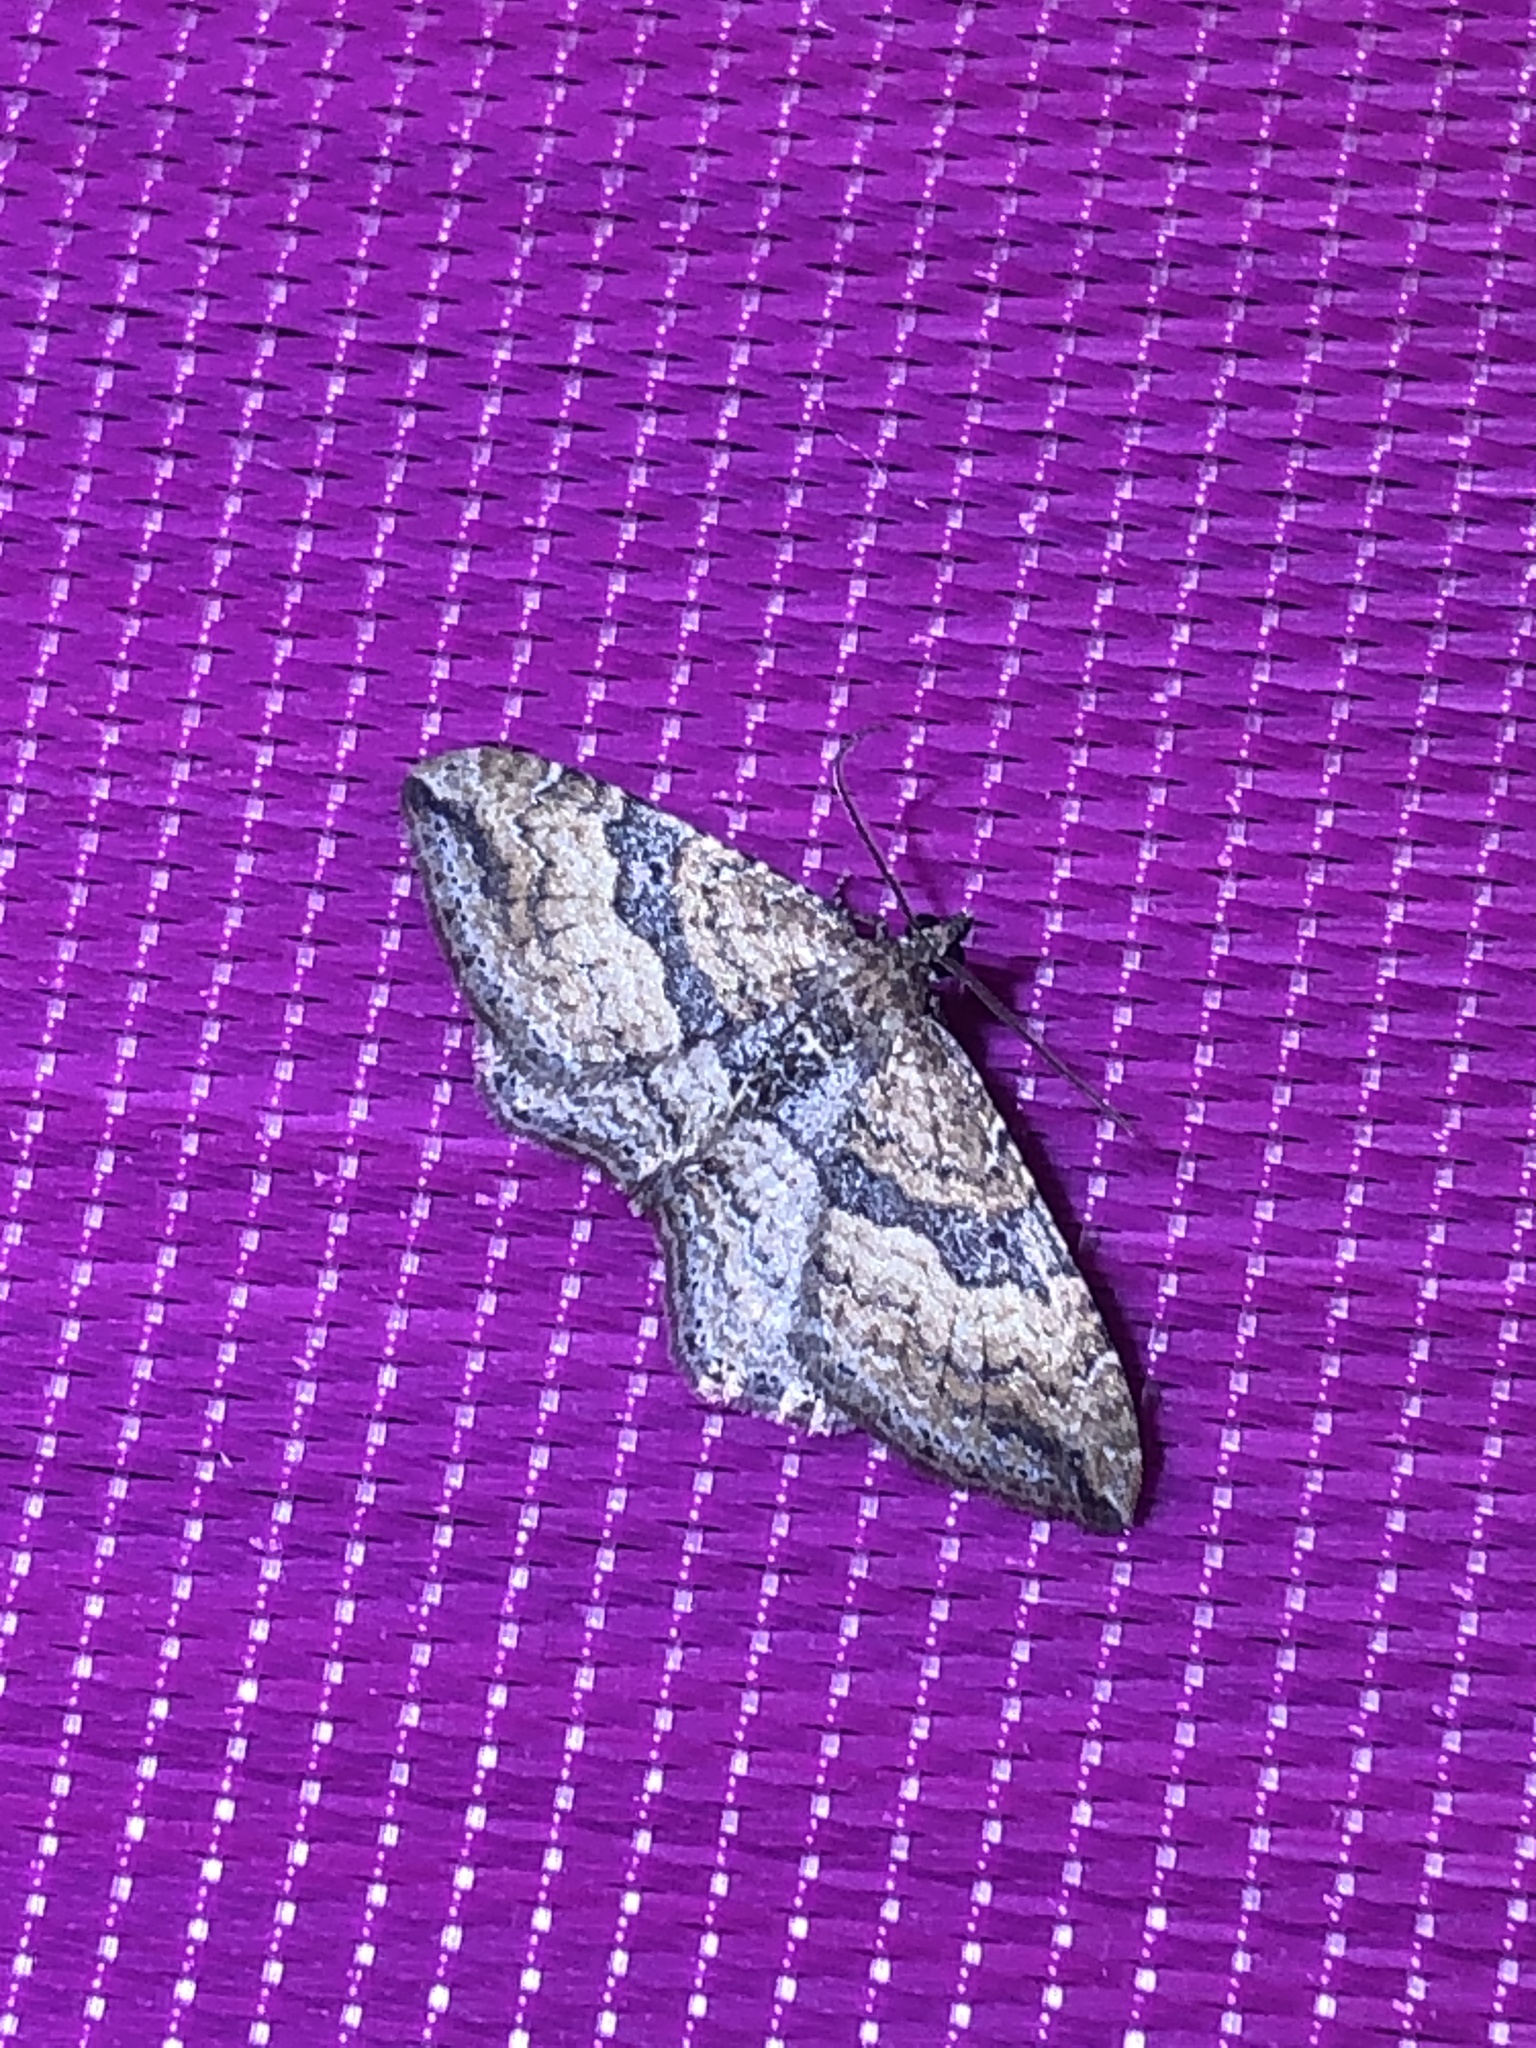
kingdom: Animalia
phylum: Arthropoda
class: Insecta
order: Lepidoptera
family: Geometridae
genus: Orthonama
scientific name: Orthonama obstipata
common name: The gem
